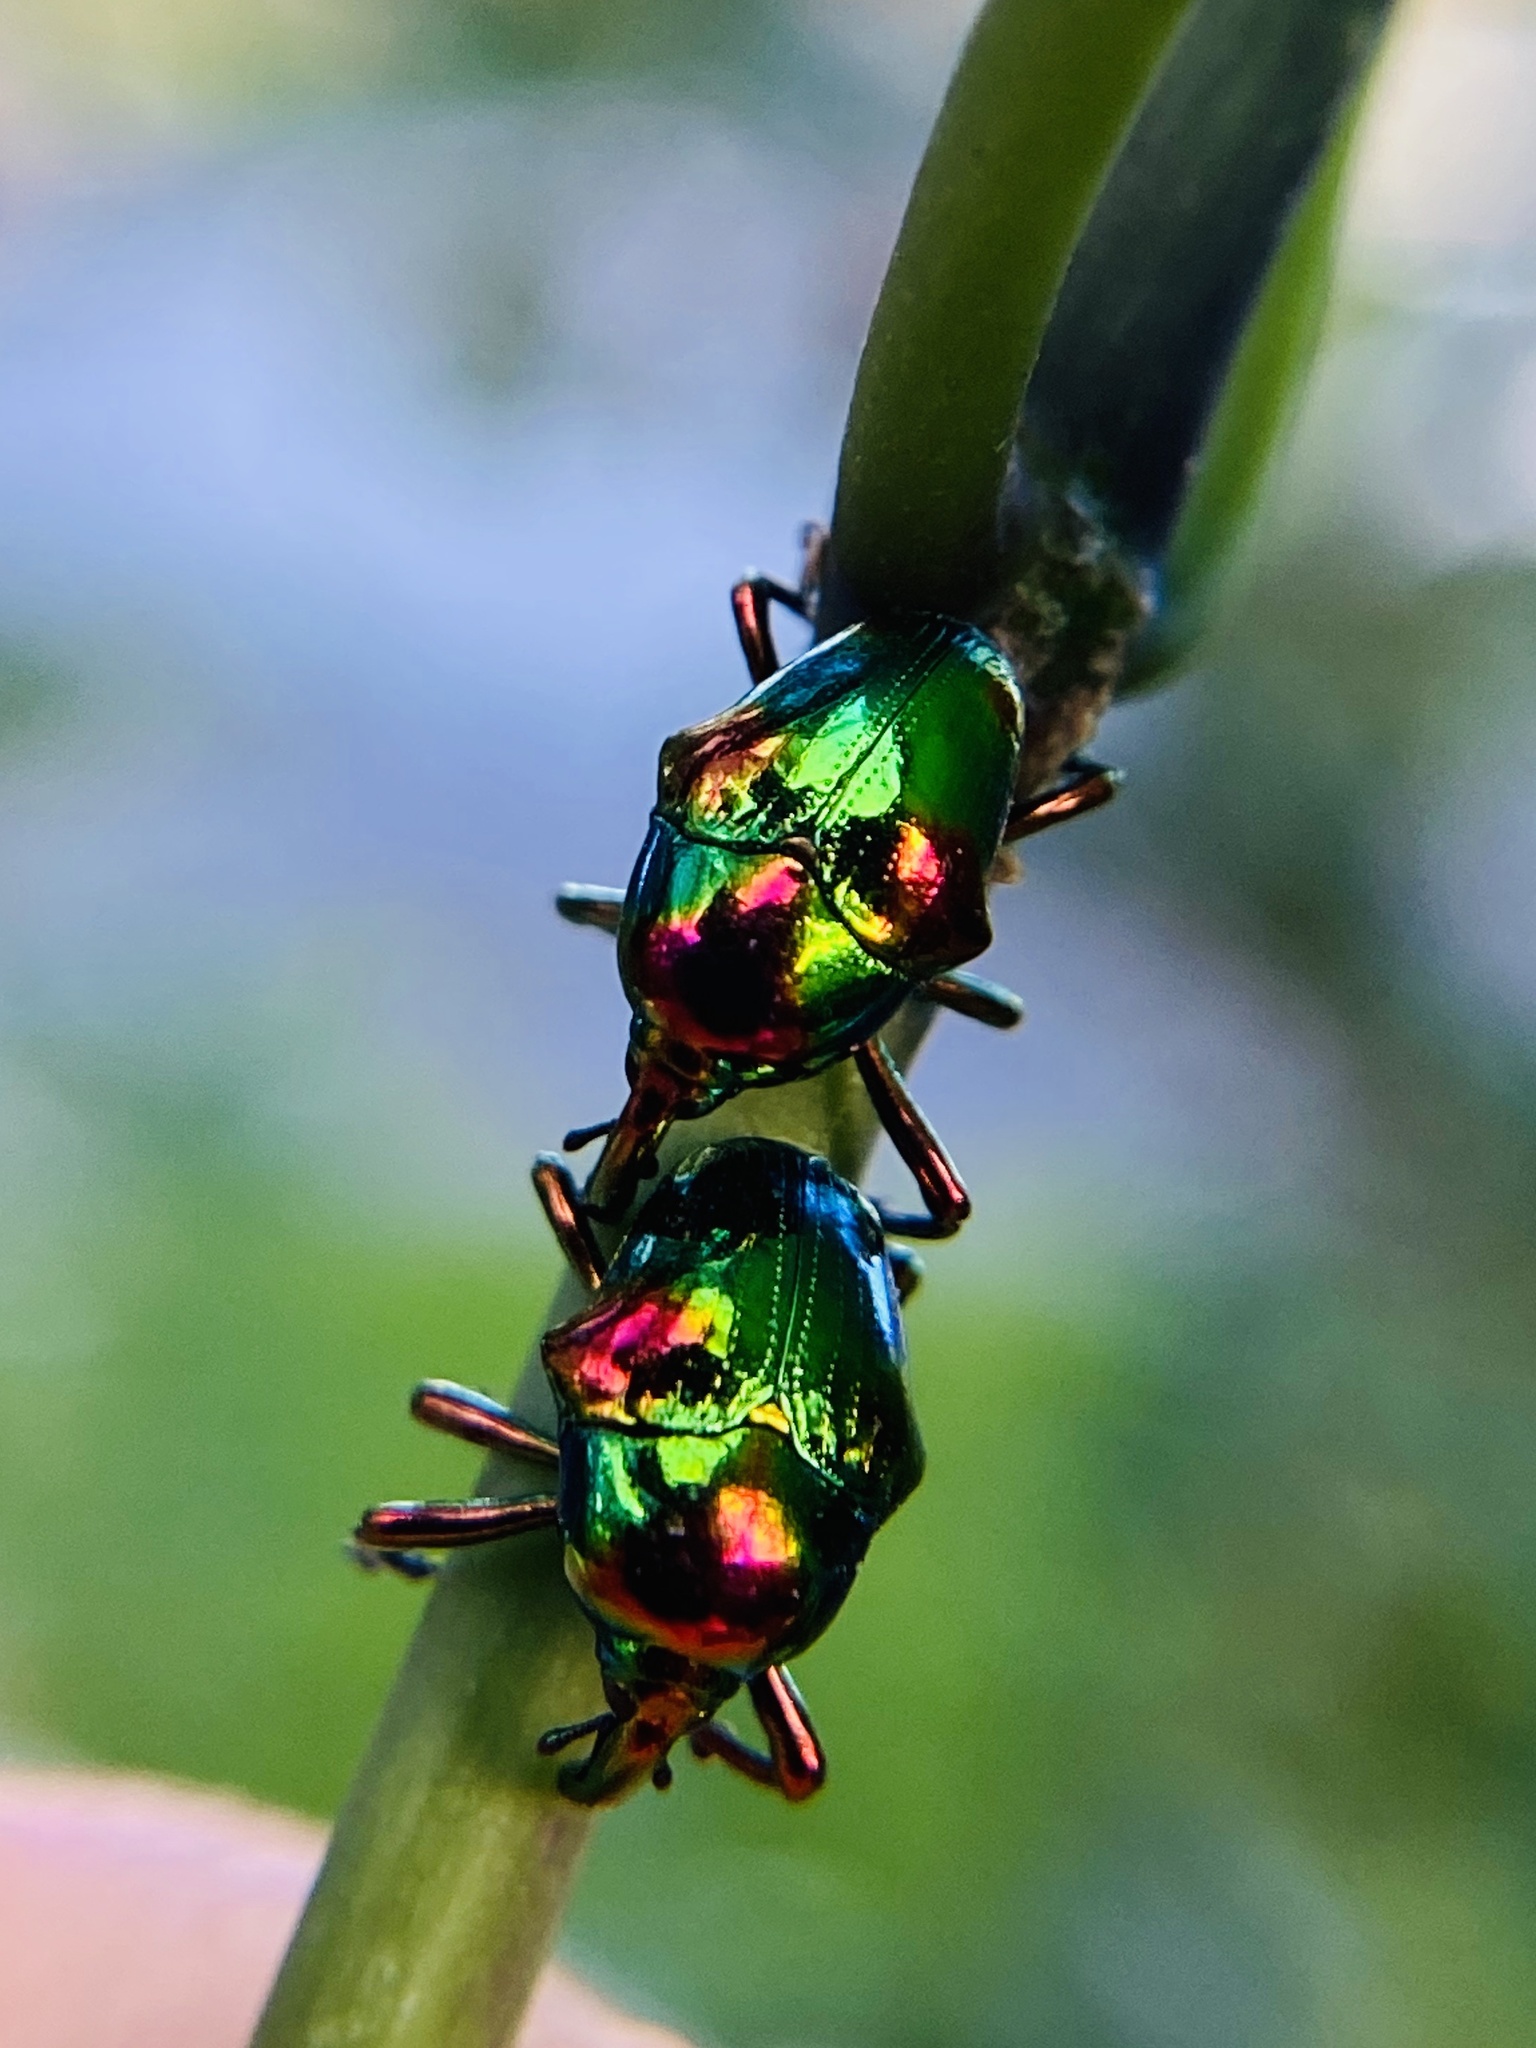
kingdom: Animalia
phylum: Arthropoda
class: Insecta
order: Coleoptera
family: Eurhynchidae
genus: Eurhinus
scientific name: Eurhinus magnificus
